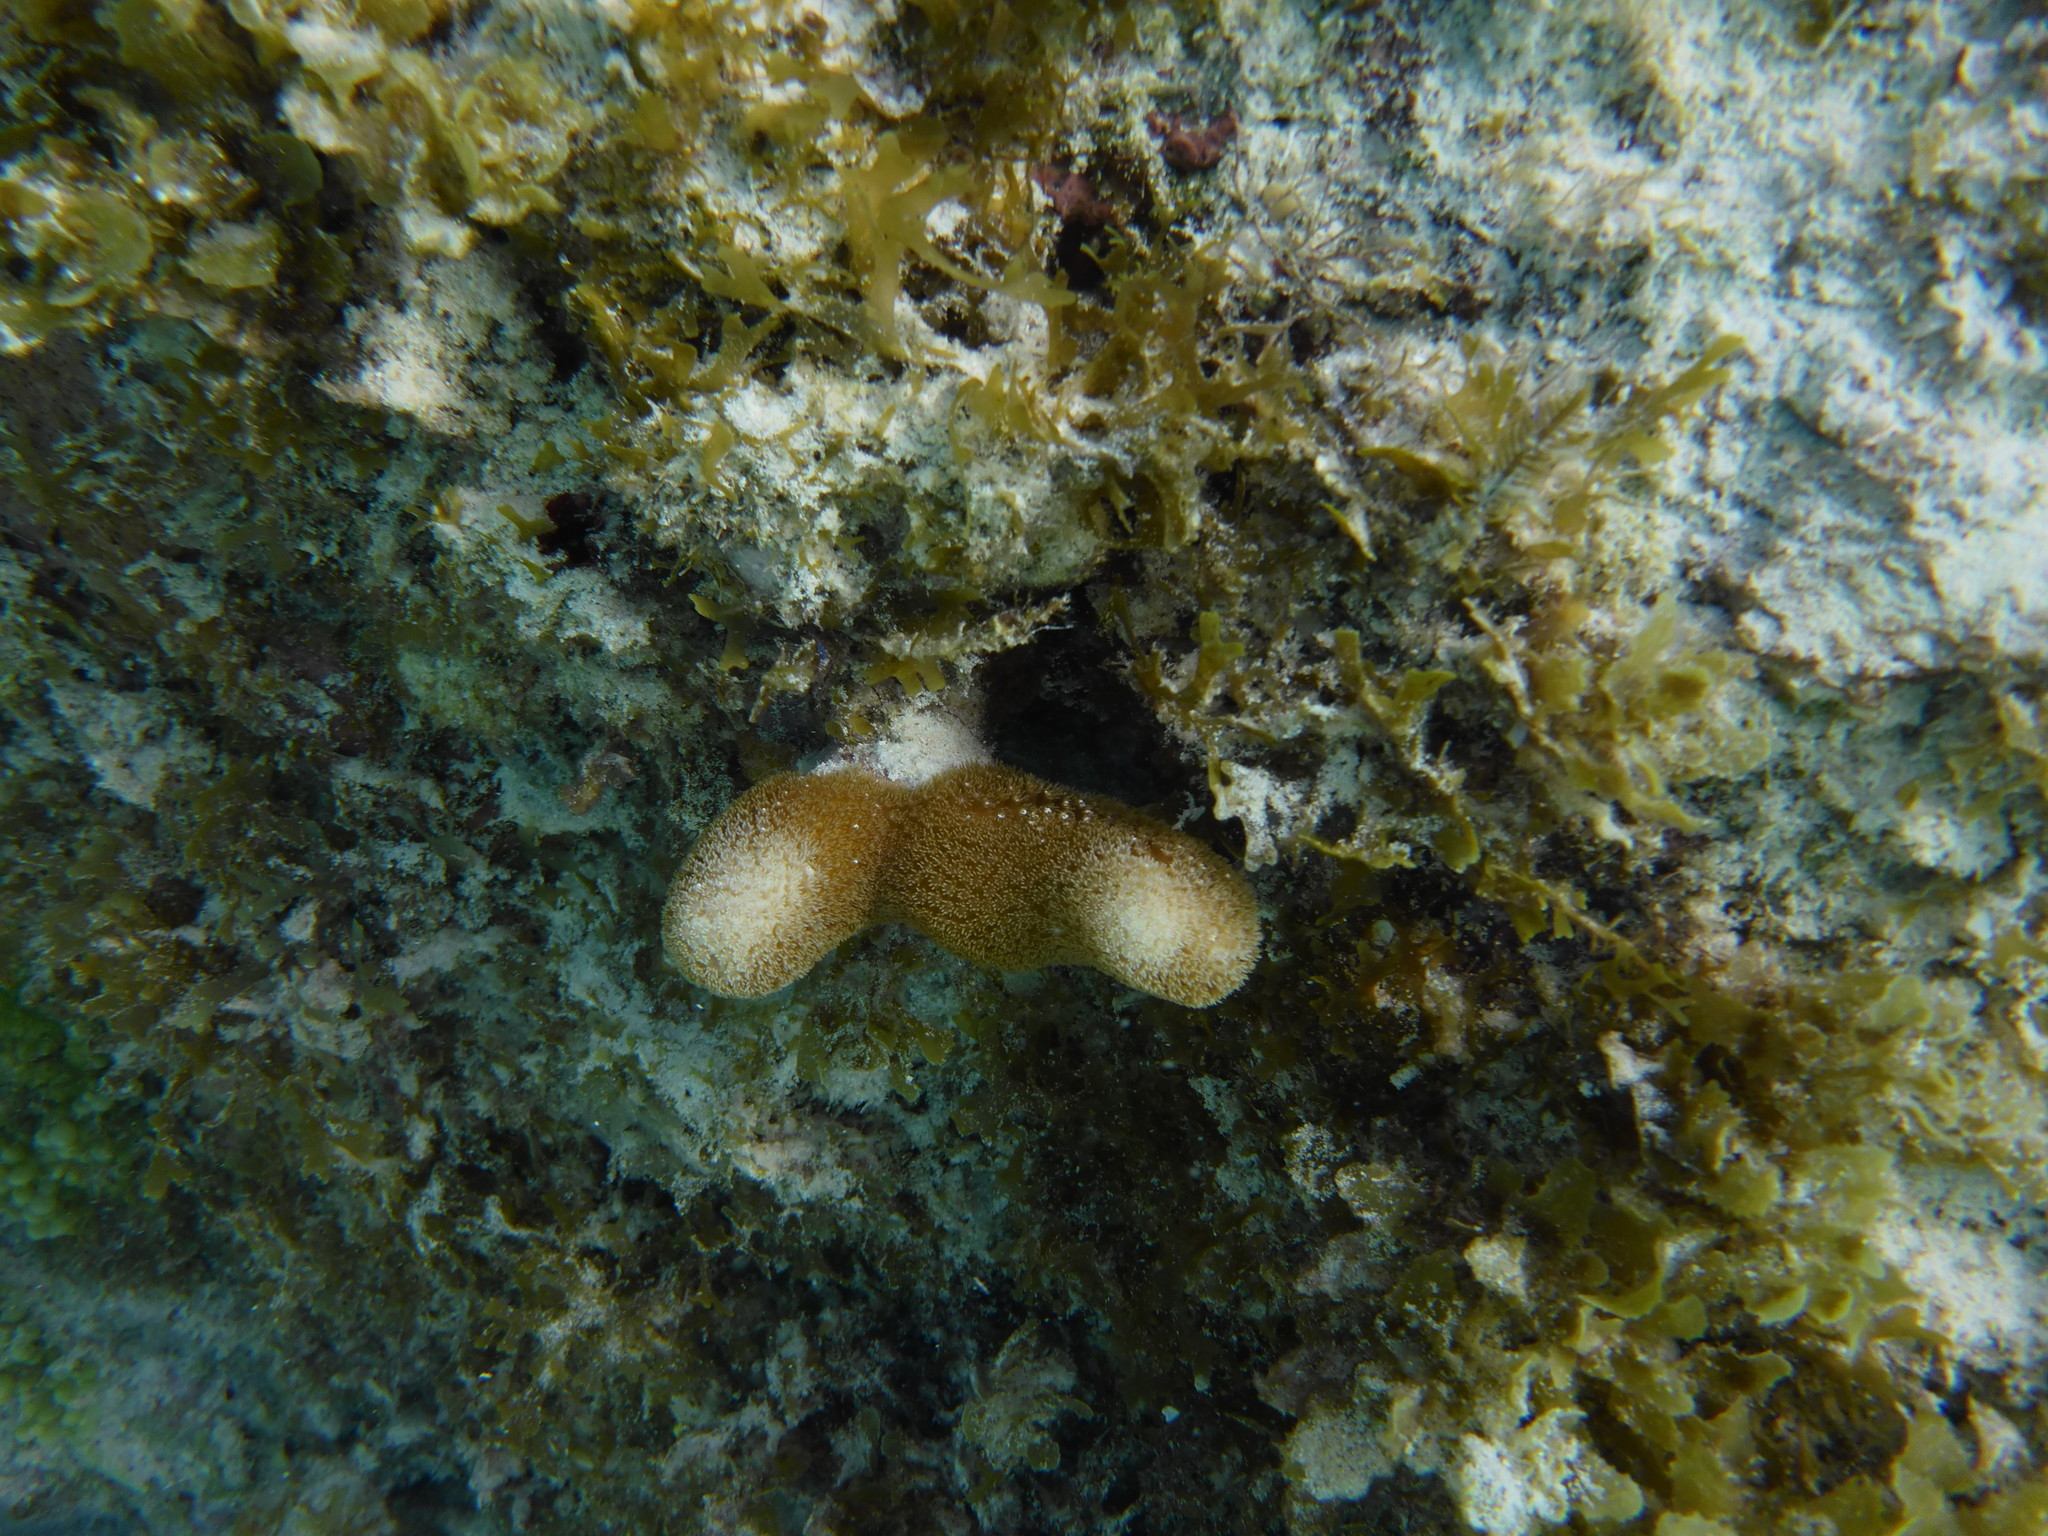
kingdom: Animalia
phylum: Cnidaria
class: Anthozoa
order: Scleractinia
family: Poritidae
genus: Porites
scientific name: Porites porites
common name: Finger coral
